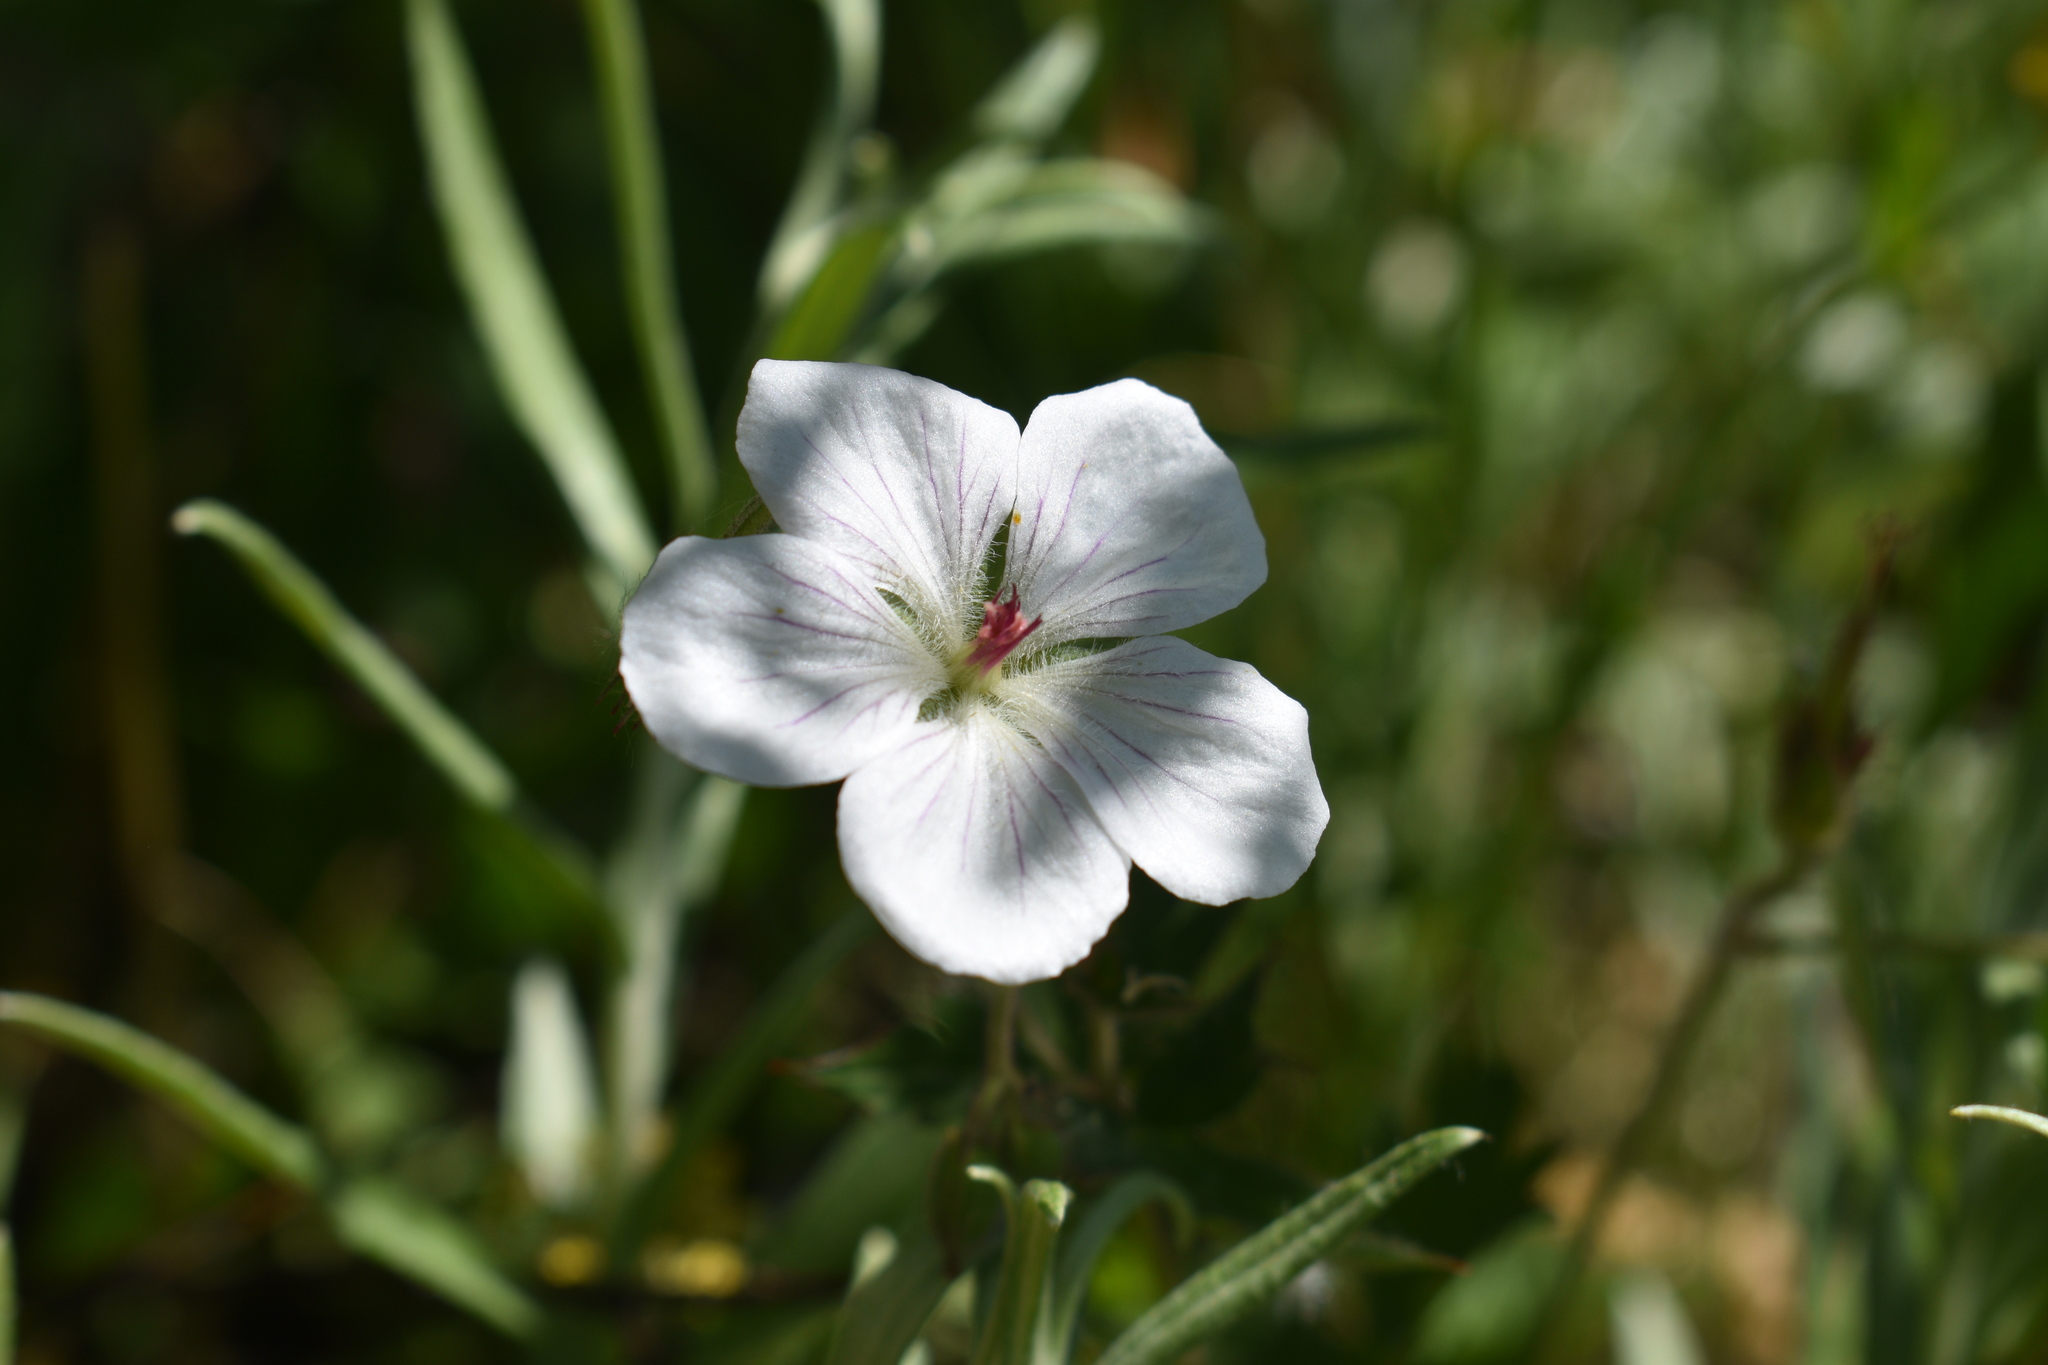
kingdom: Plantae
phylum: Tracheophyta
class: Magnoliopsida
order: Geraniales
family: Geraniaceae
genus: Geranium
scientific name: Geranium richardsonii
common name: Richardson's crane's-bill
